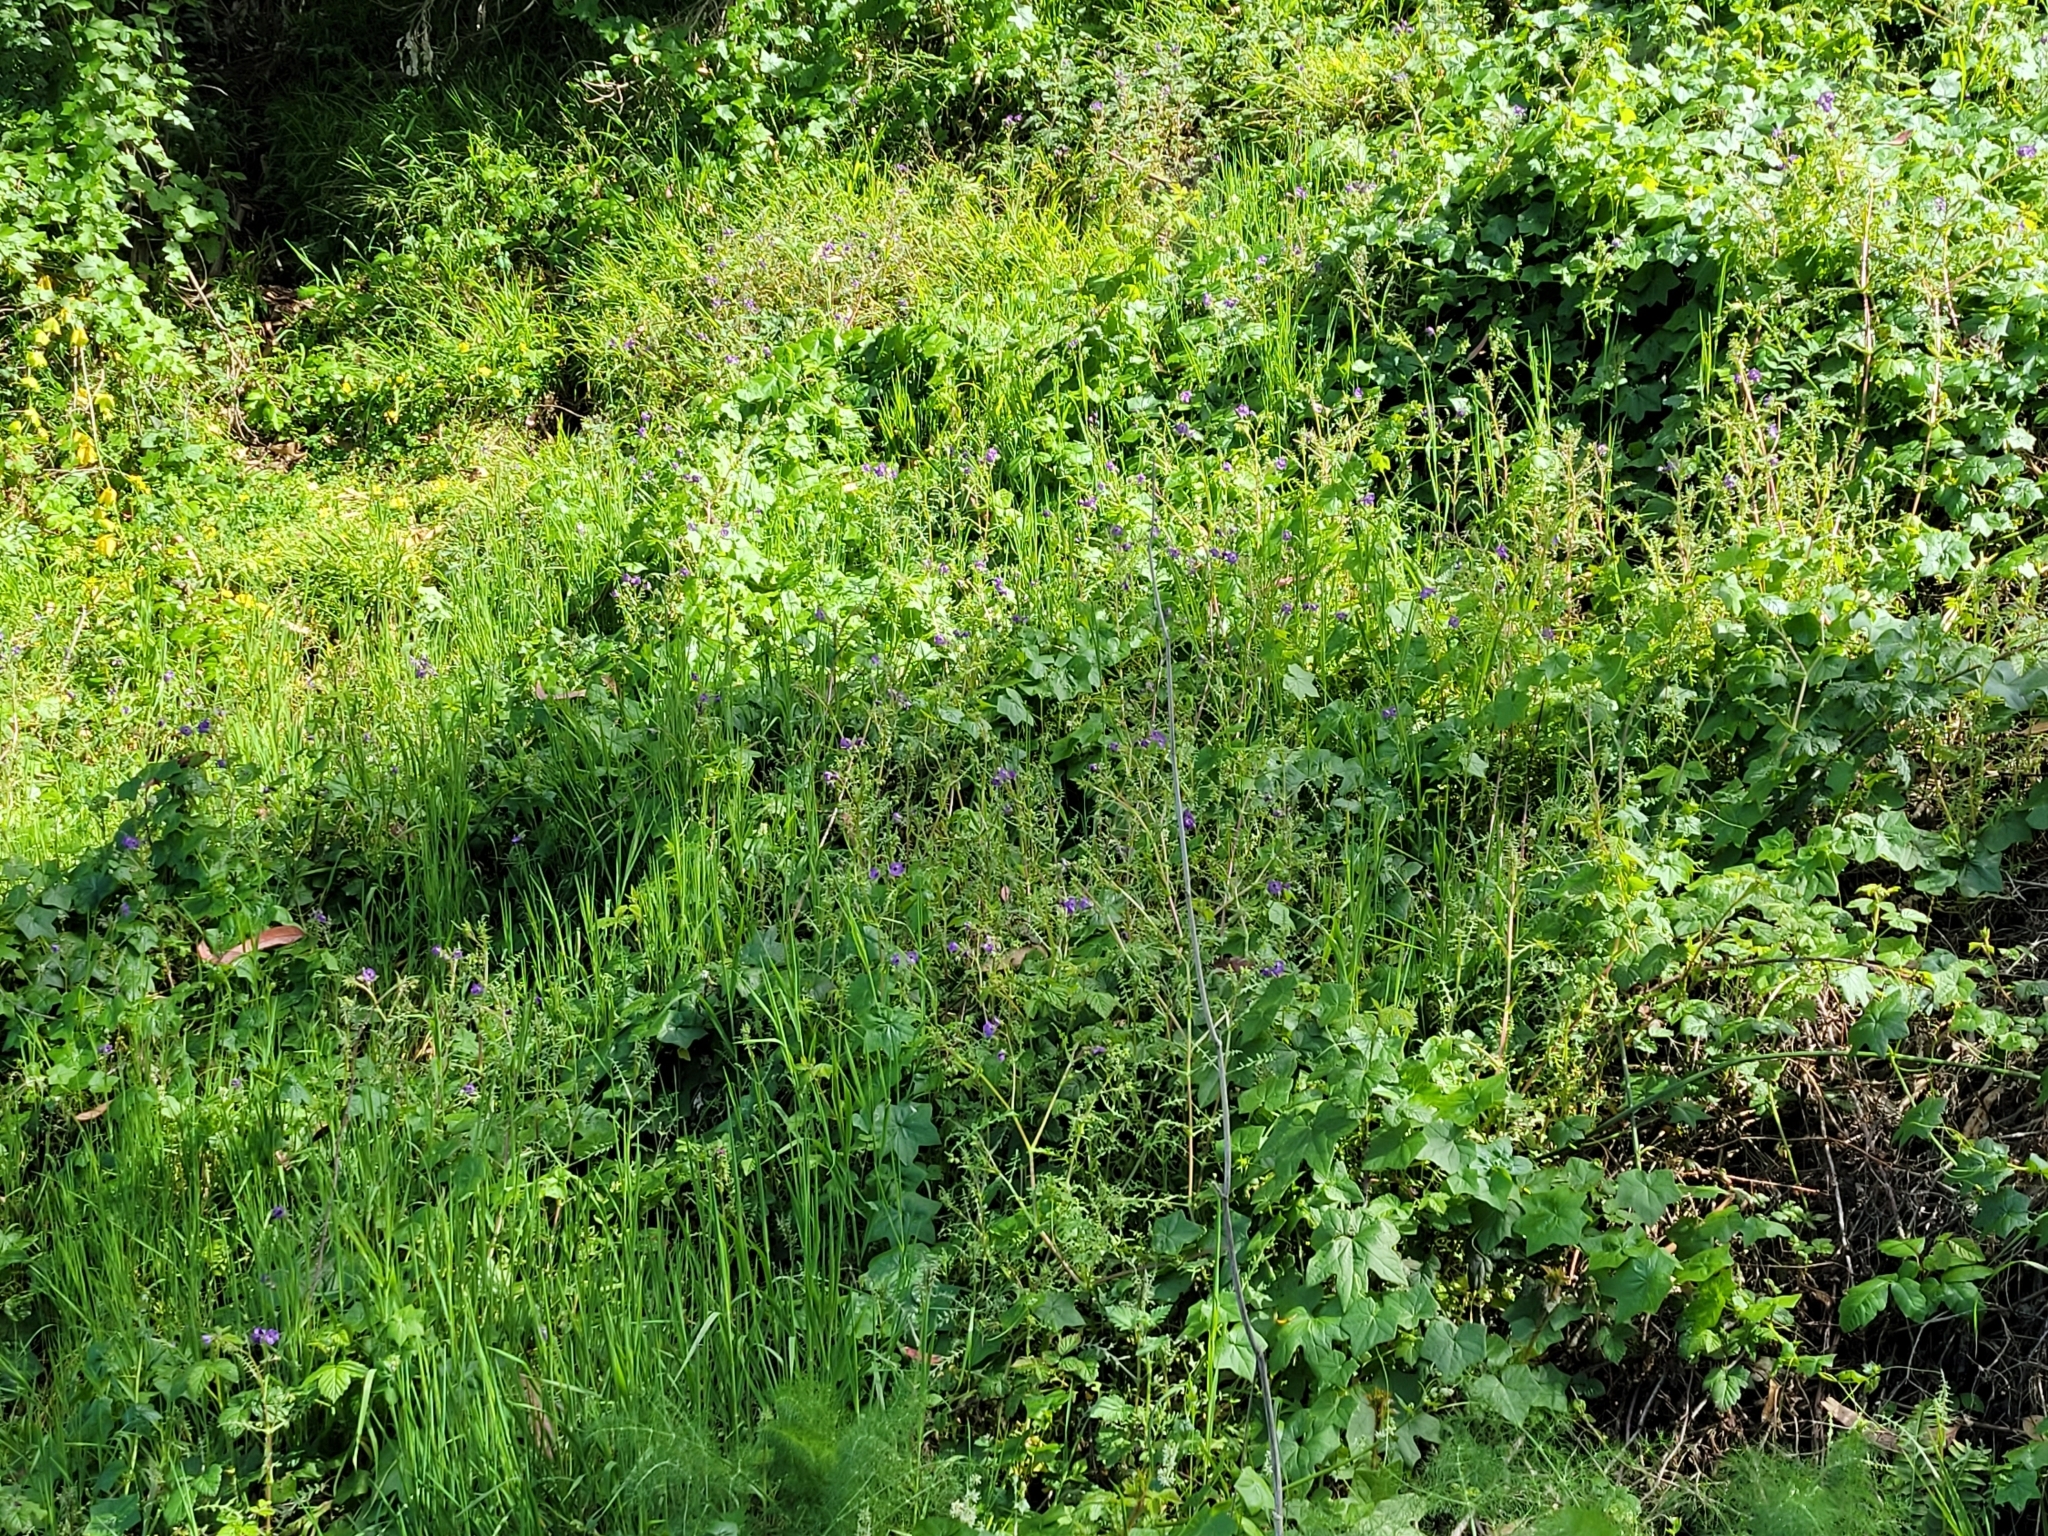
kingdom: Plantae
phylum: Tracheophyta
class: Magnoliopsida
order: Boraginales
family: Hydrophyllaceae
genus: Pholistoma
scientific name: Pholistoma auritum
